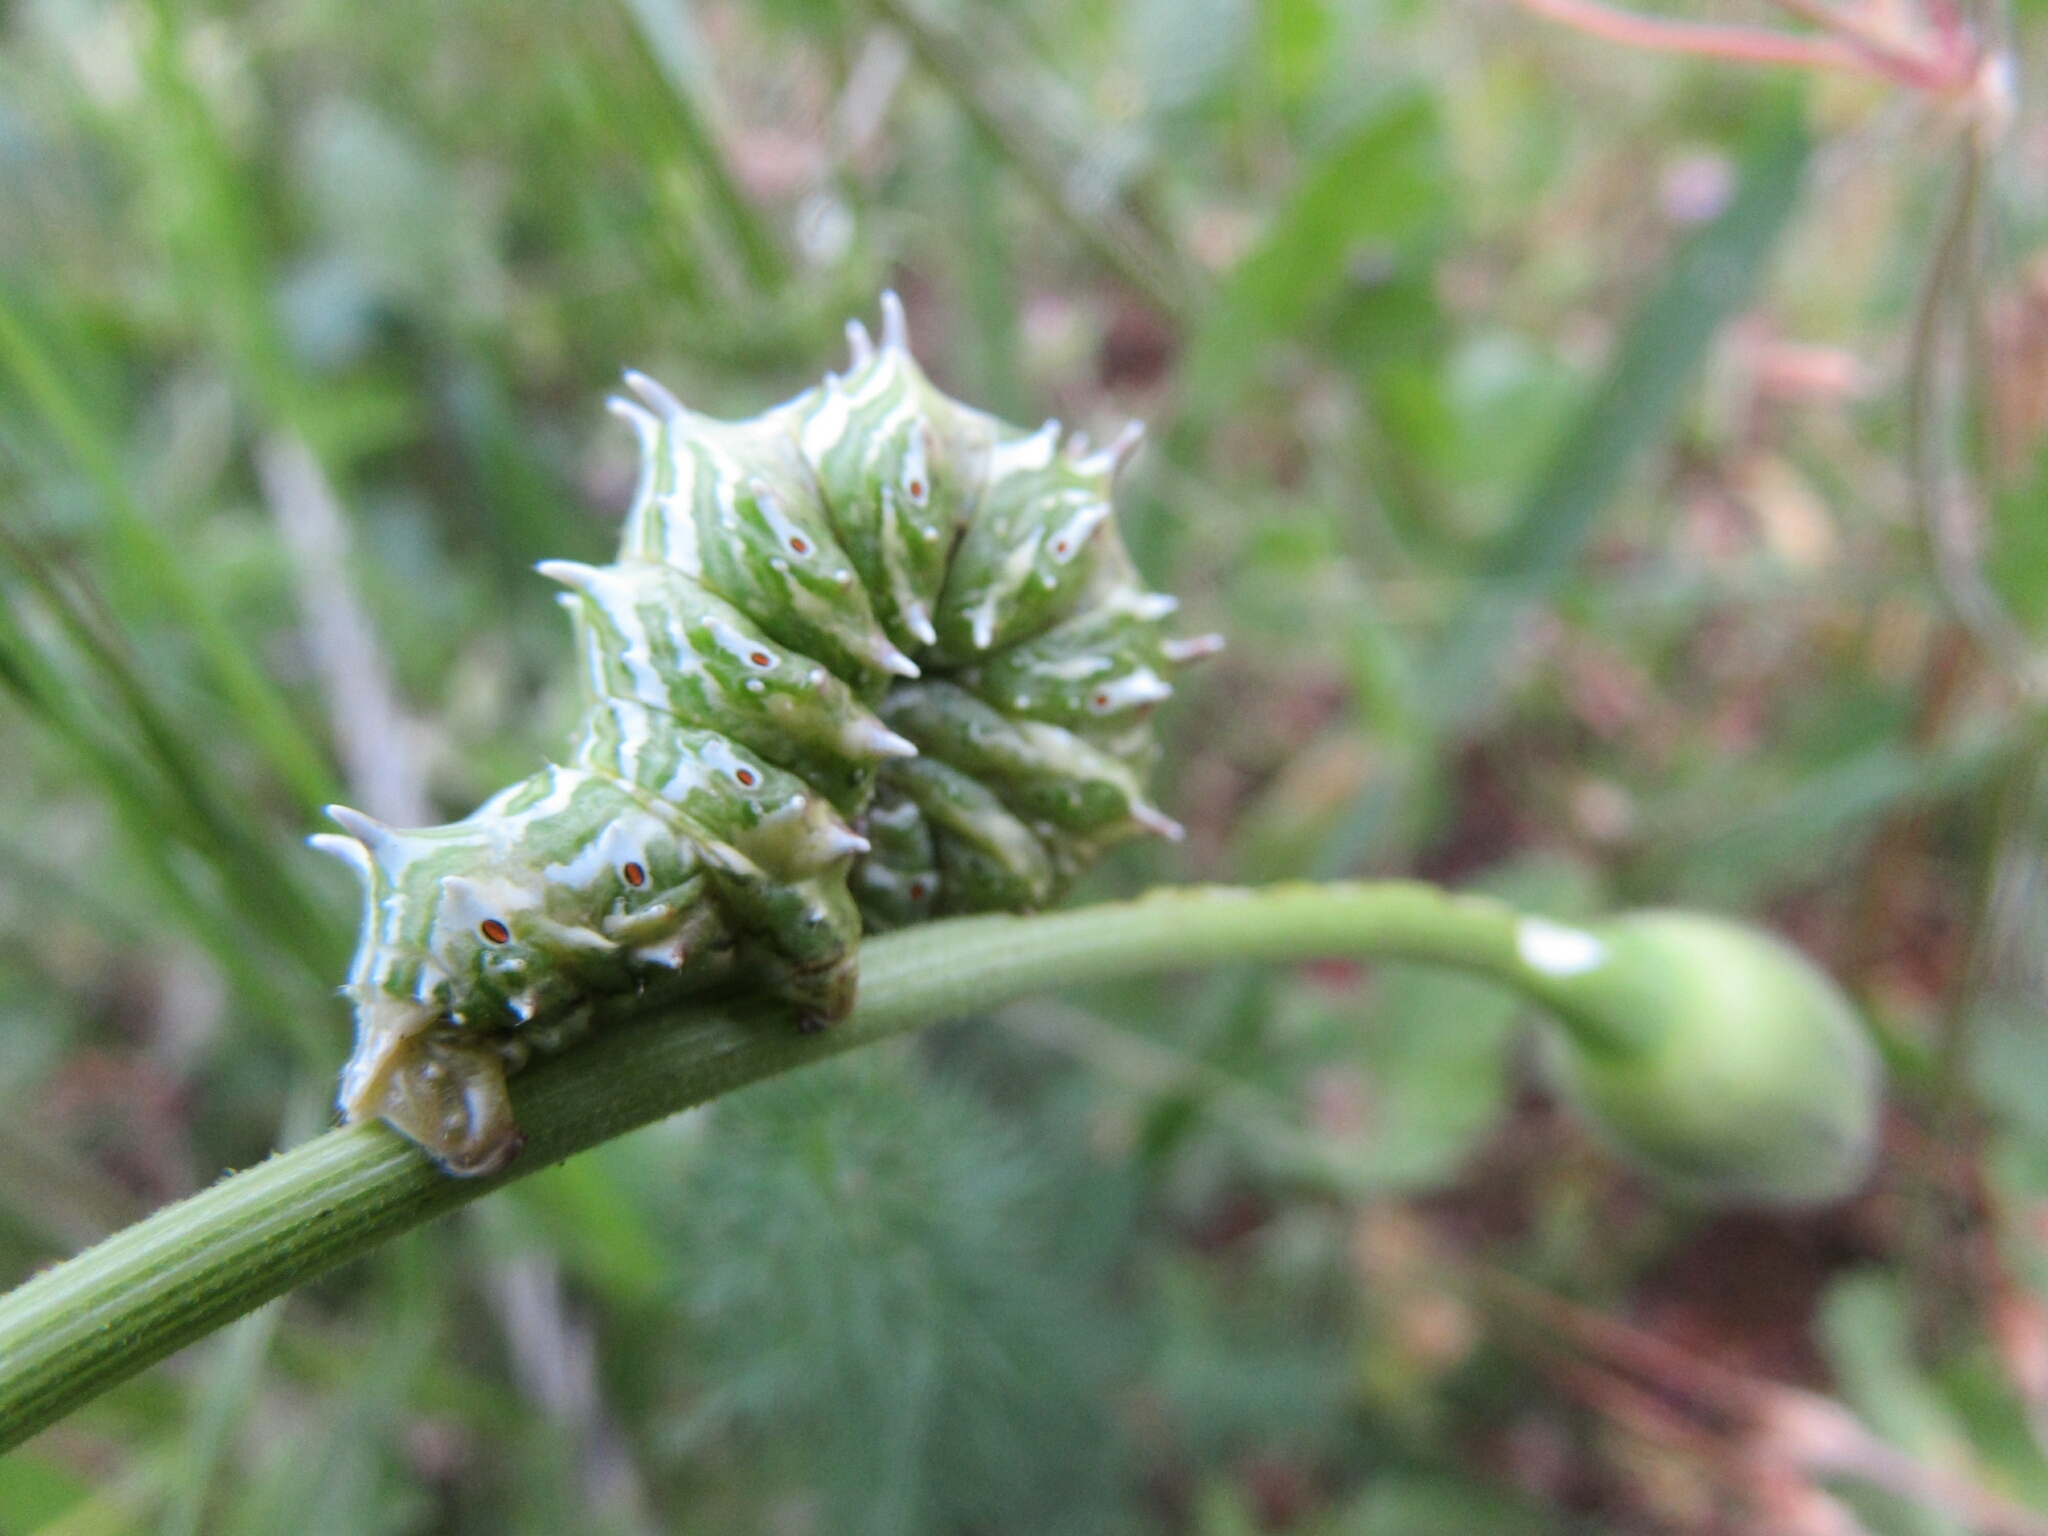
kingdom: Animalia
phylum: Arthropoda
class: Insecta
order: Lepidoptera
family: Geometridae
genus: Apochima
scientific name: Apochima flabellaria
